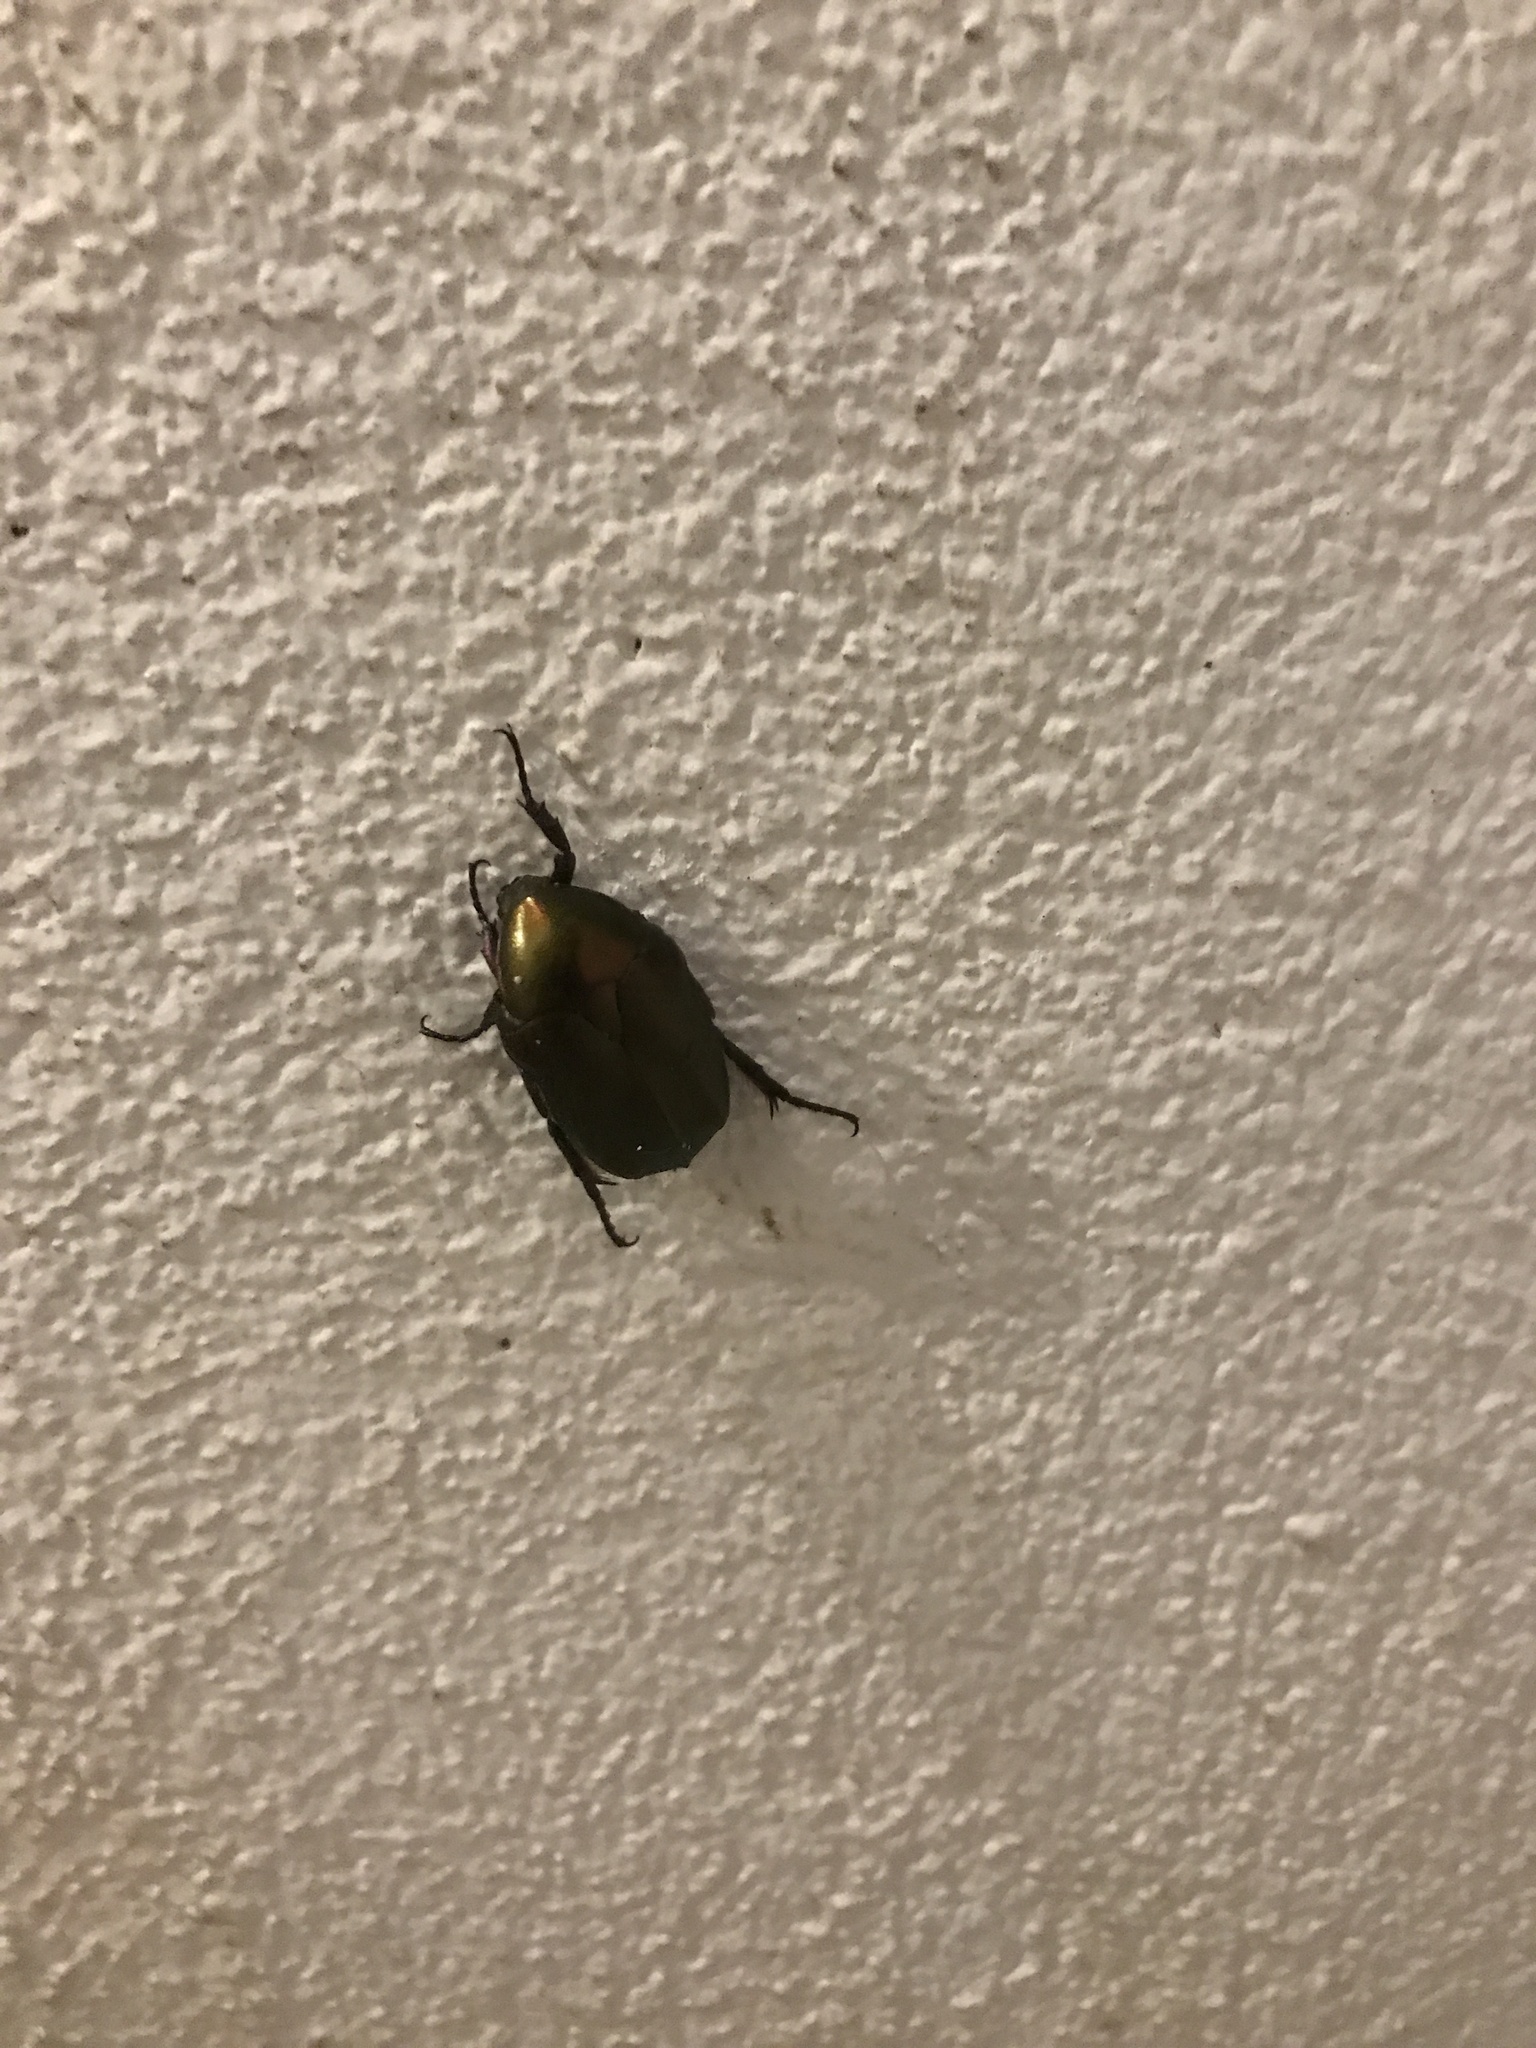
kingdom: Animalia
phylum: Arthropoda
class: Insecta
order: Coleoptera
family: Scarabaeidae
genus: Protaetia
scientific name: Protaetia cuprea
